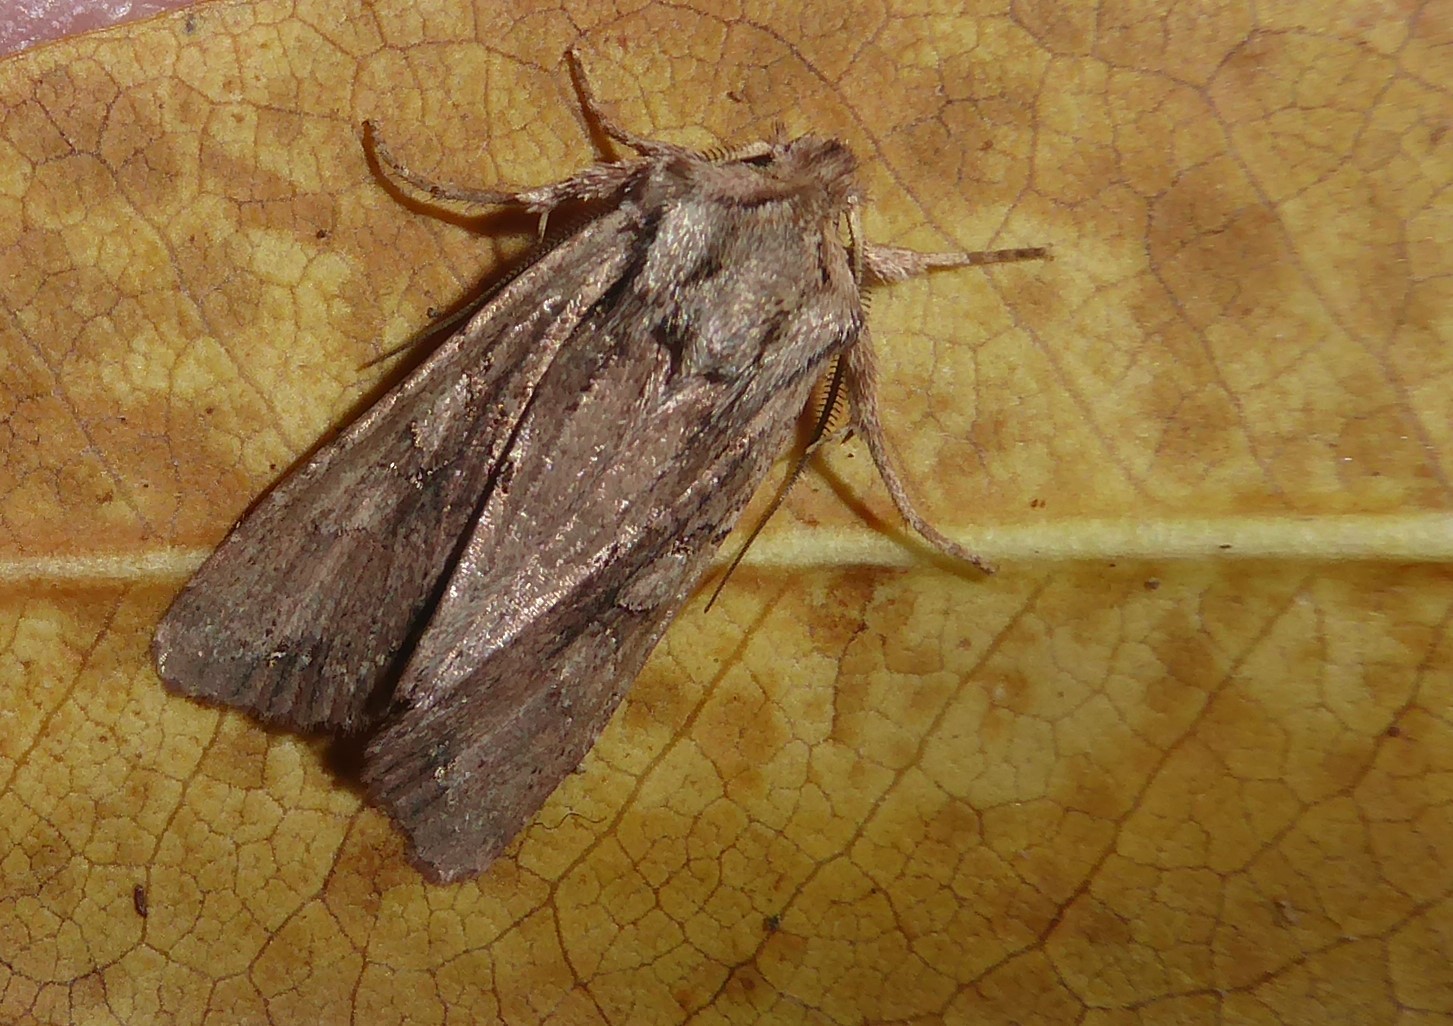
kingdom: Animalia
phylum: Arthropoda
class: Insecta
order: Lepidoptera
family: Noctuidae
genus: Ichneutica
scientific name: Ichneutica
